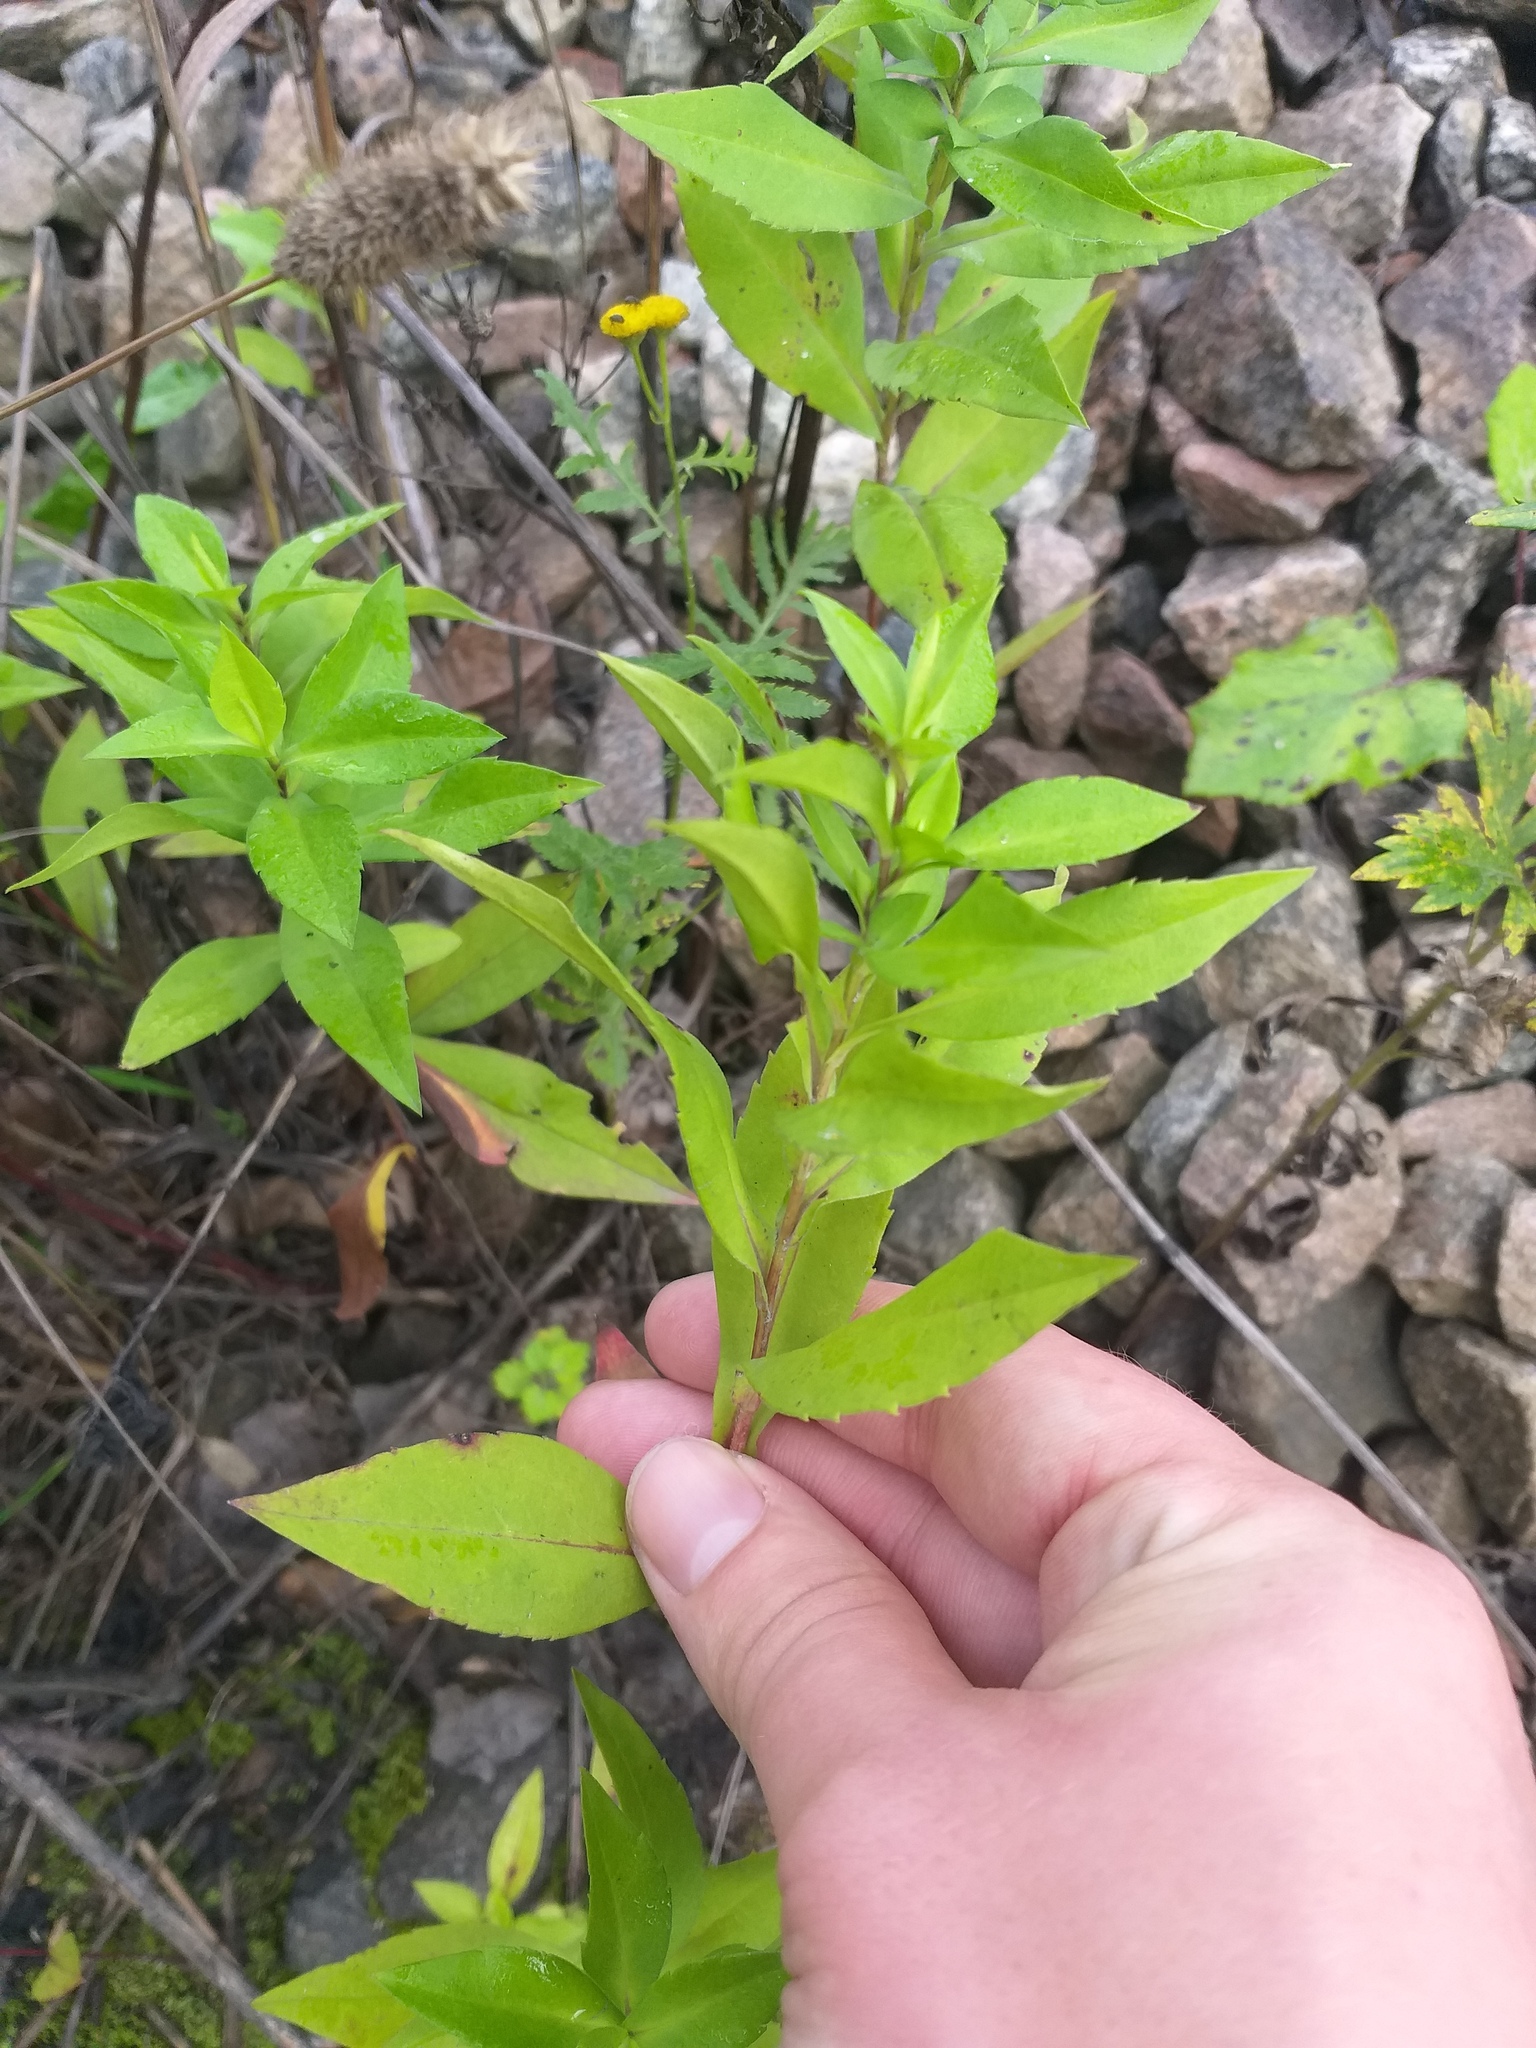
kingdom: Plantae
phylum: Tracheophyta
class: Magnoliopsida
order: Asterales
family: Asteraceae
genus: Symphyotrichum
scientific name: Symphyotrichum novi-belgii
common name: Michaelmas daisy
